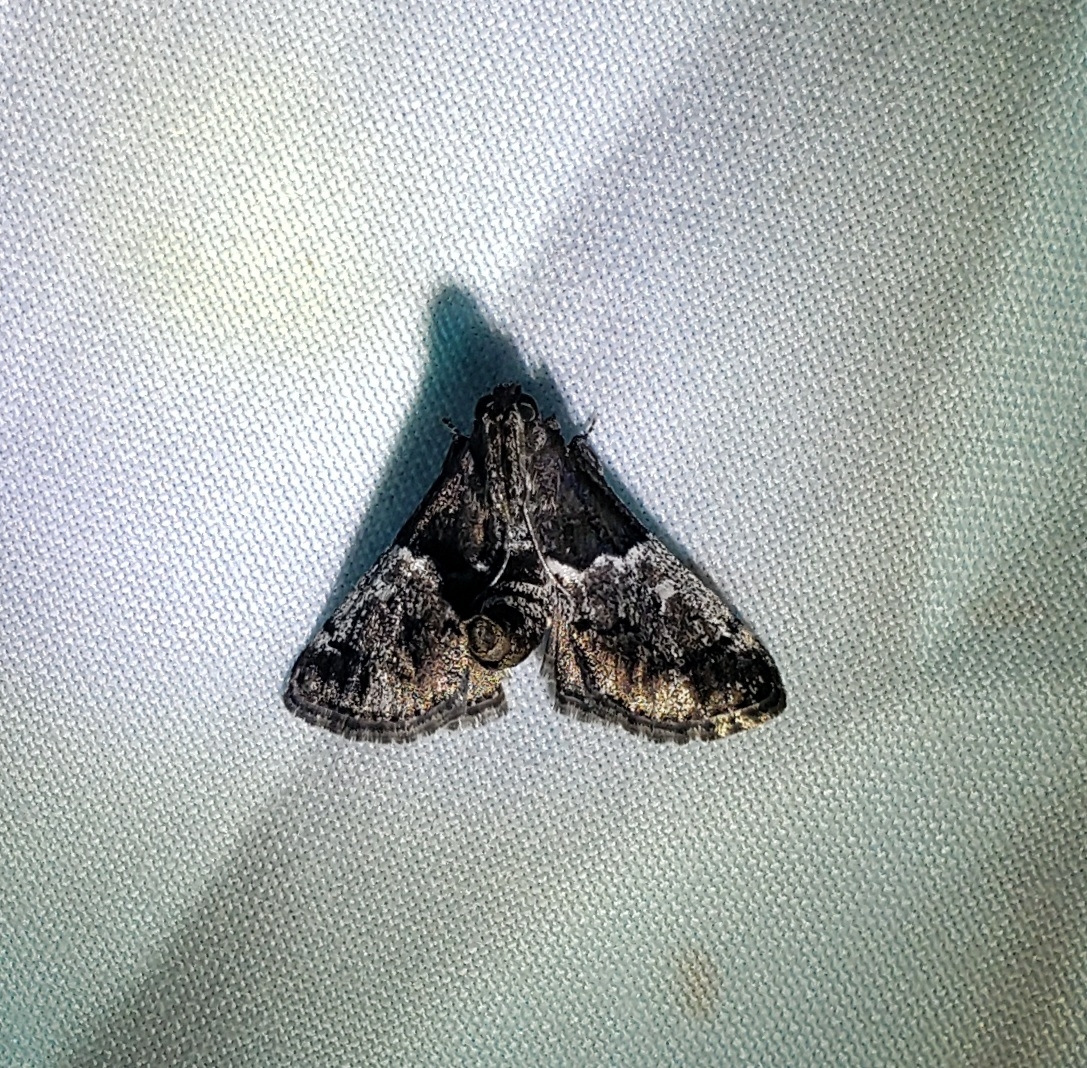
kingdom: Animalia
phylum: Arthropoda
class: Insecta
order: Lepidoptera
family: Pyralidae
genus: Macalla
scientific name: Macalla zelleri
